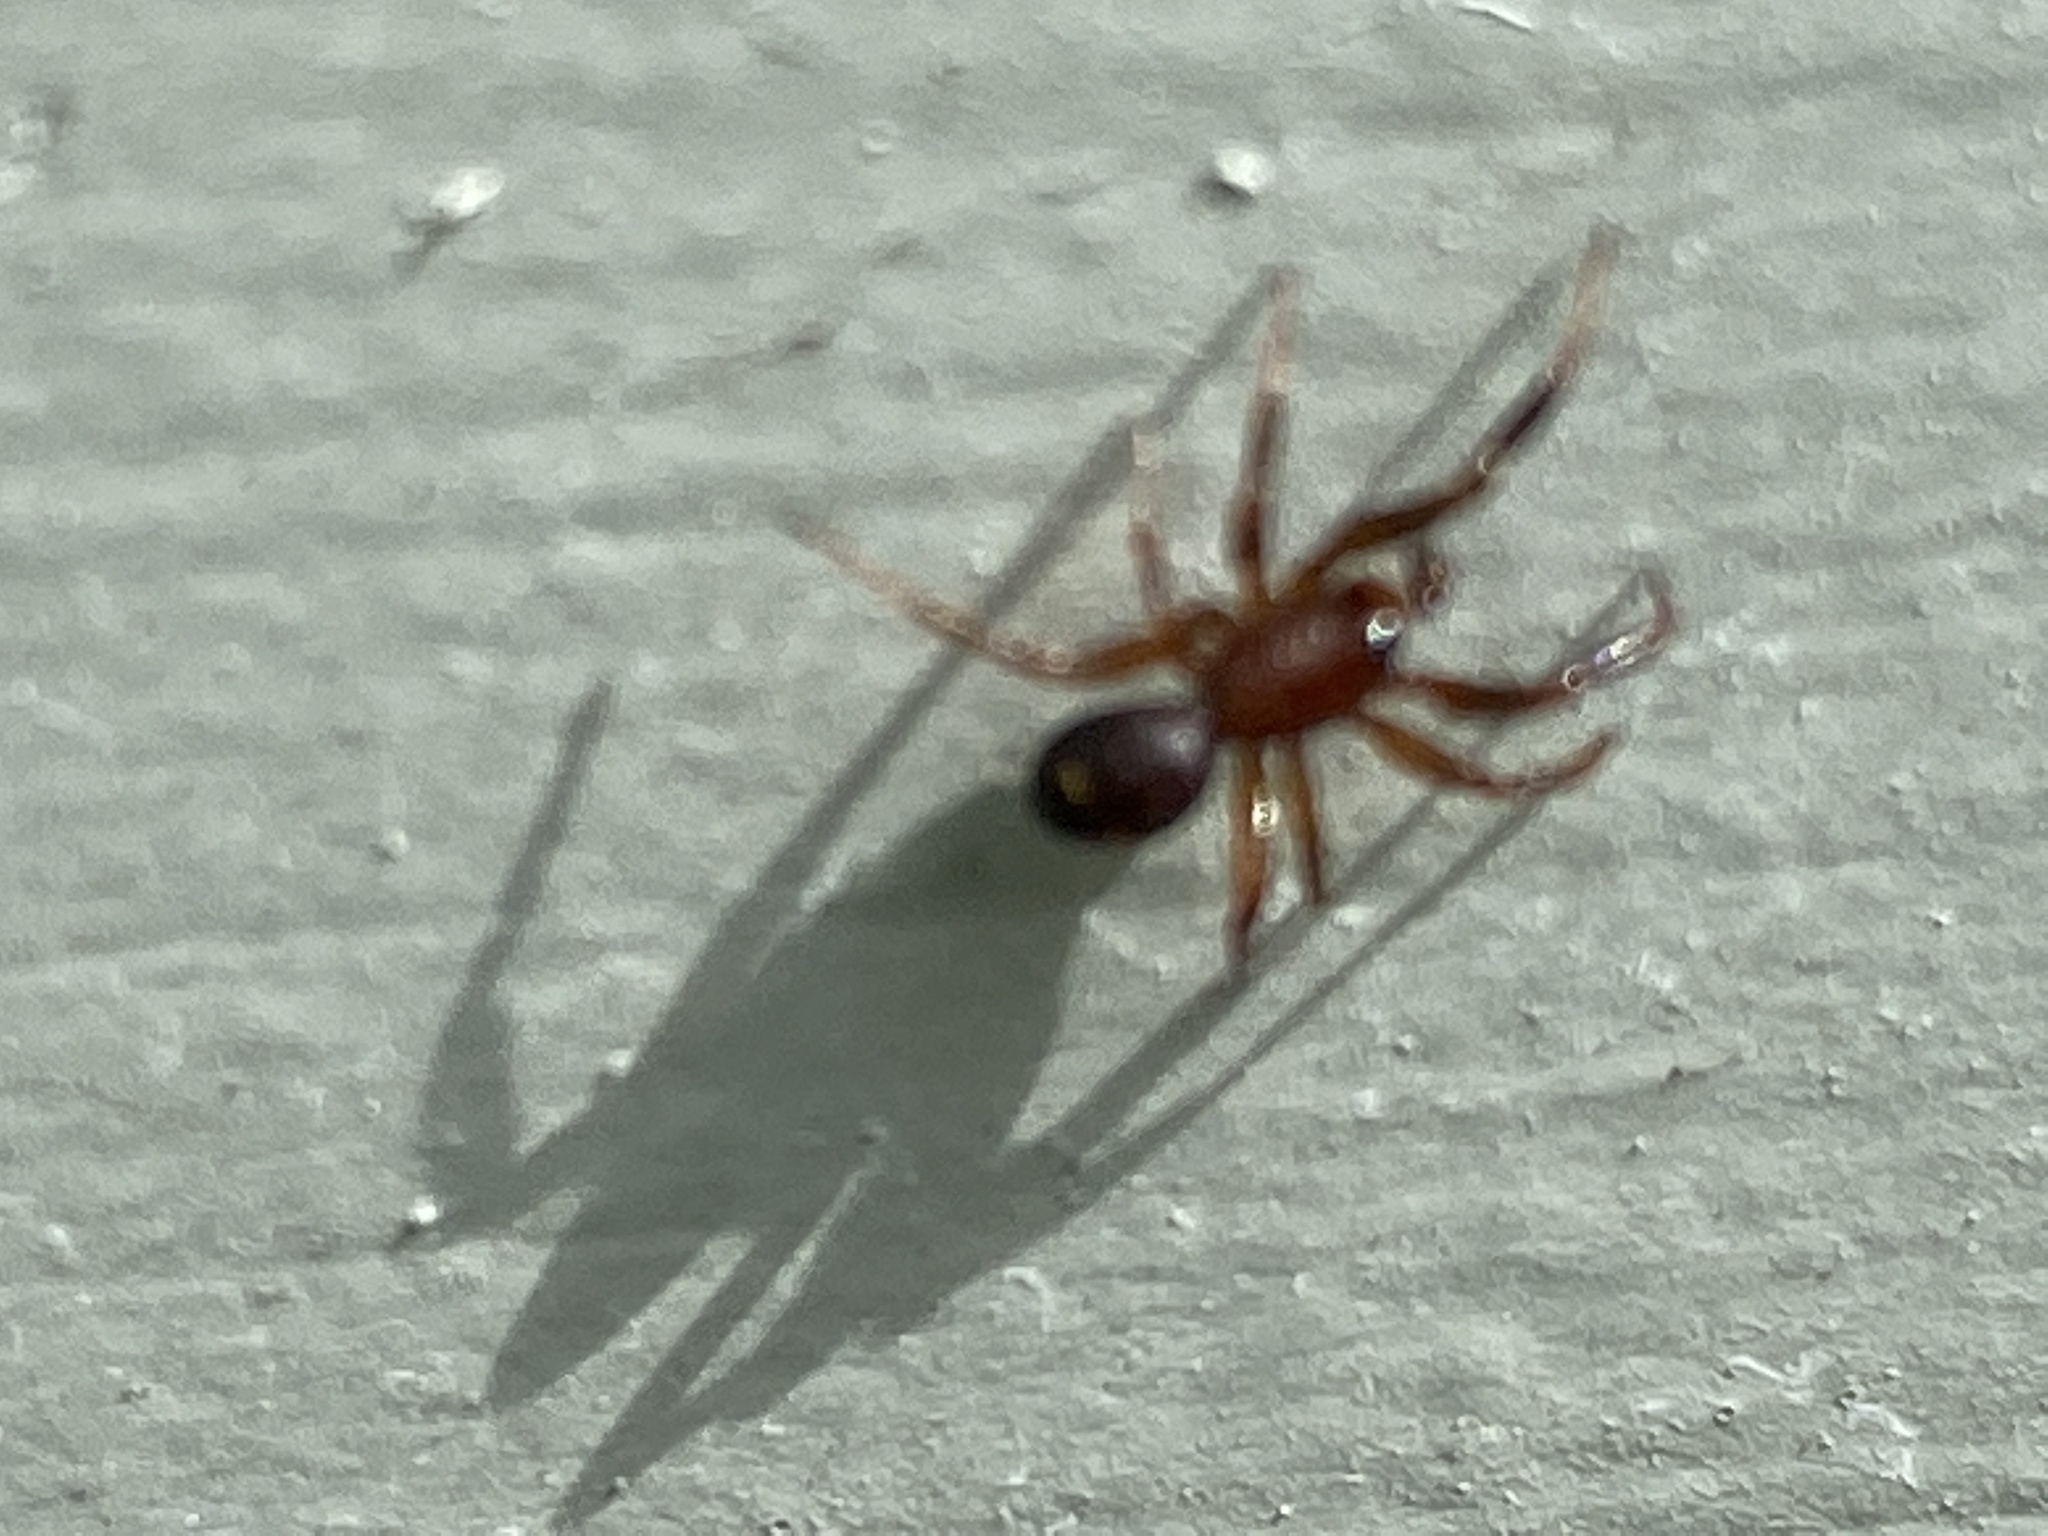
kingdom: Animalia
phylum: Arthropoda
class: Arachnida
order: Araneae
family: Theridiidae
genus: Asagena
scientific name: Asagena americana
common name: Two-spotted cobweb spider
